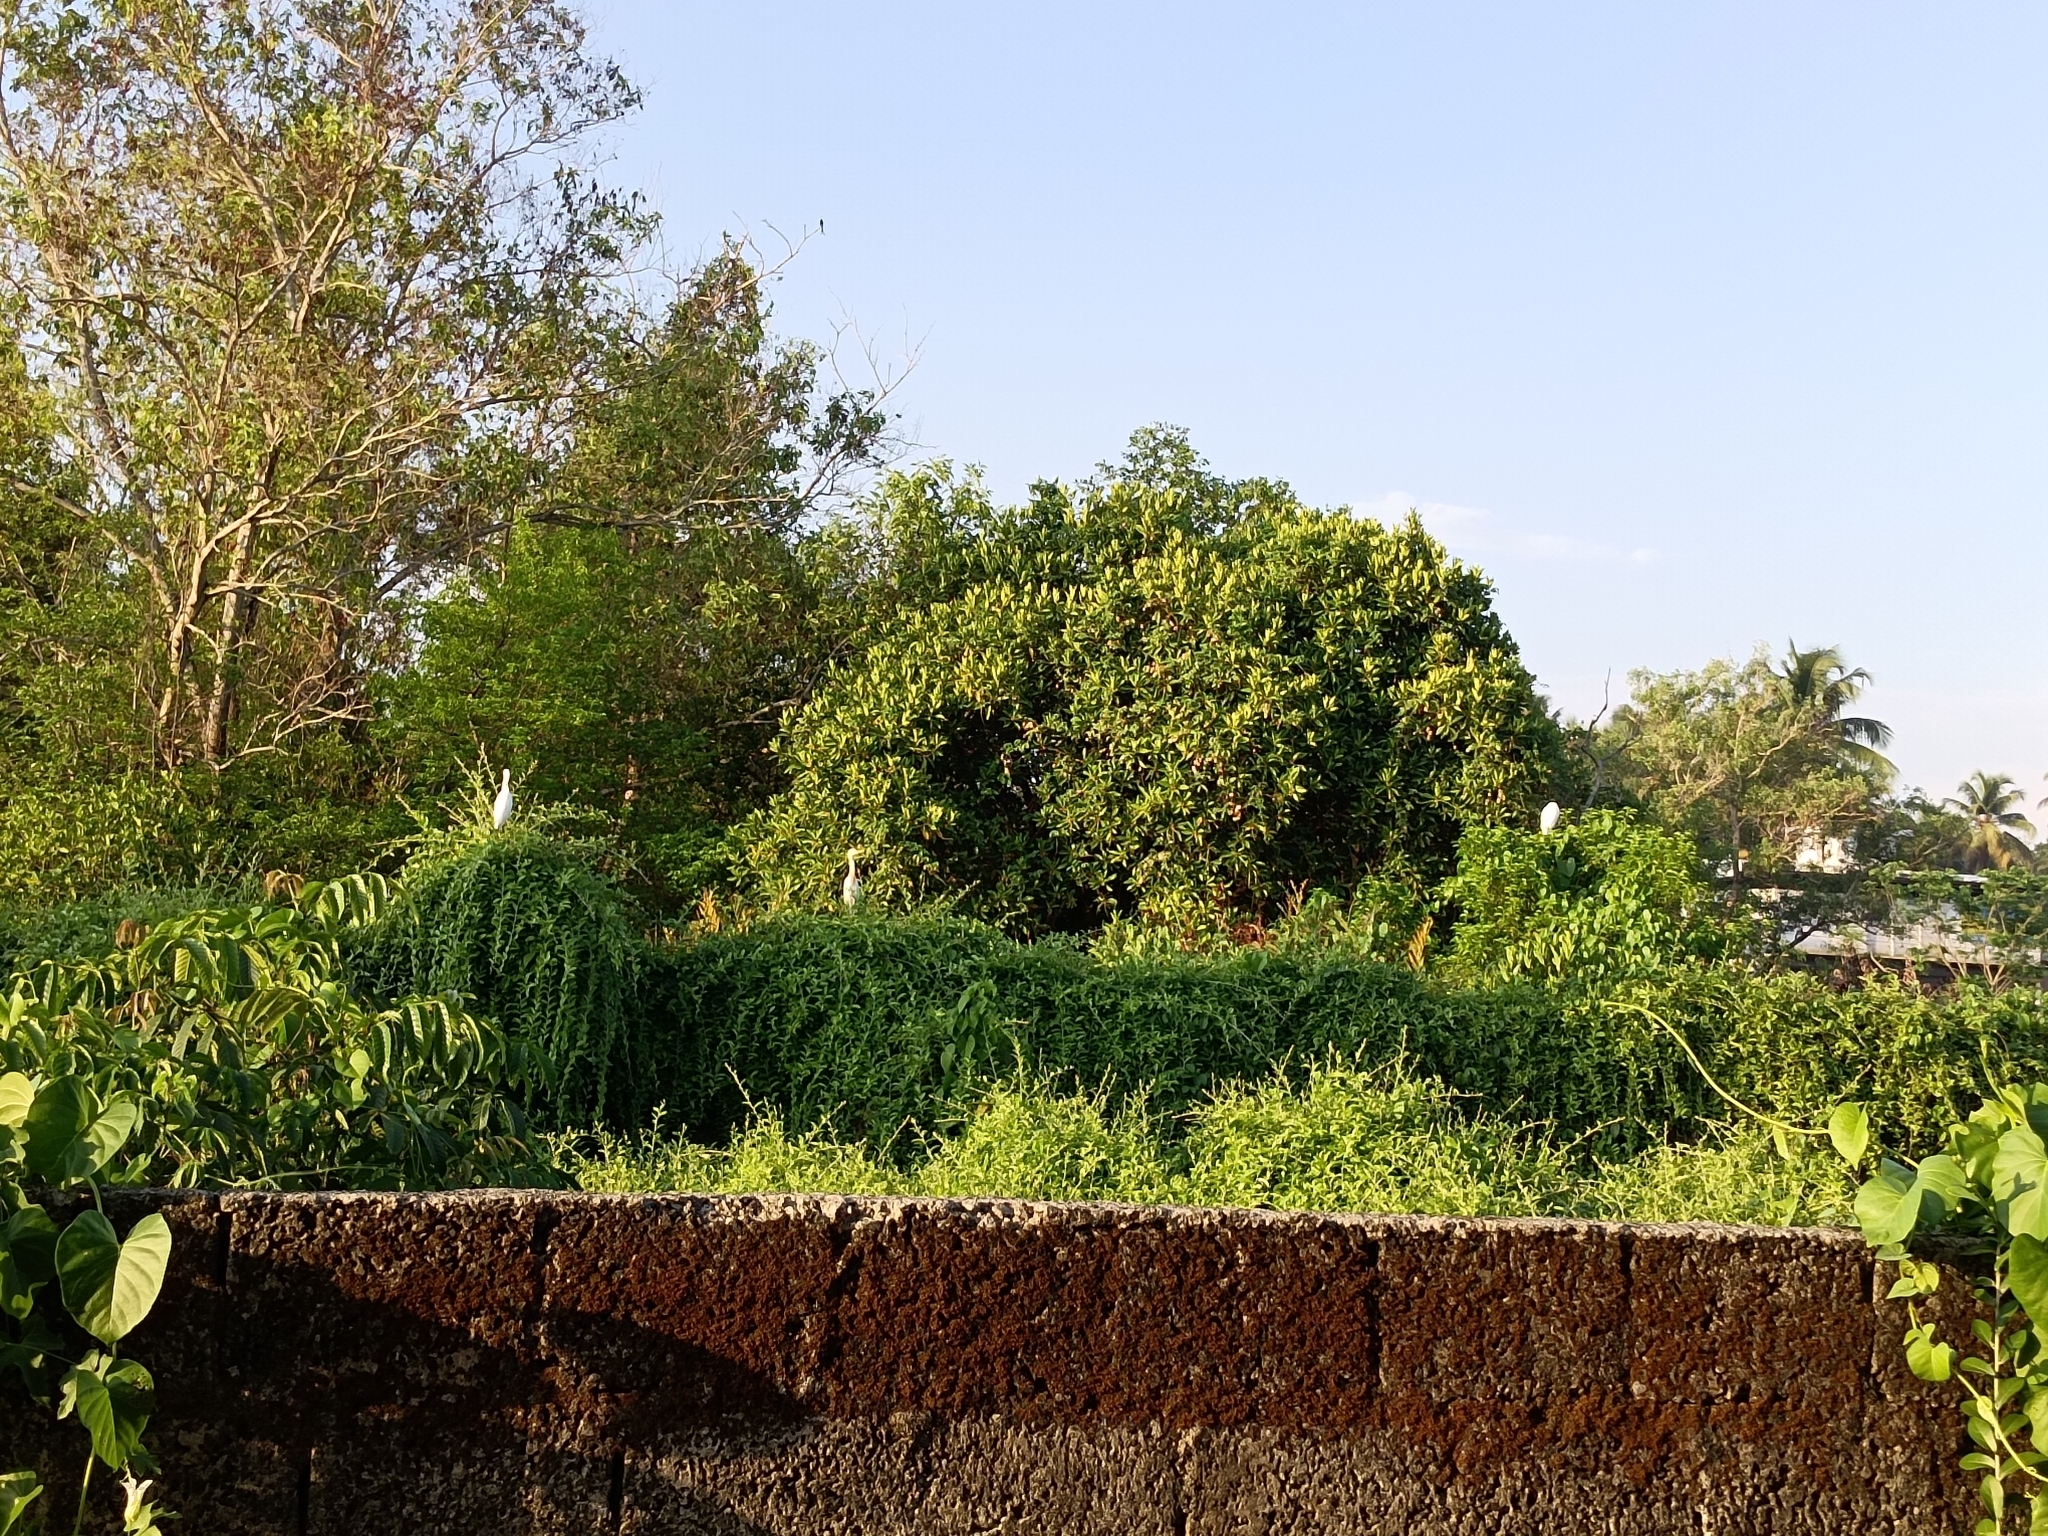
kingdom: Animalia
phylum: Chordata
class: Aves
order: Pelecaniformes
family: Ardeidae
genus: Bubulcus
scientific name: Bubulcus coromandus
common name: Eastern cattle egret
